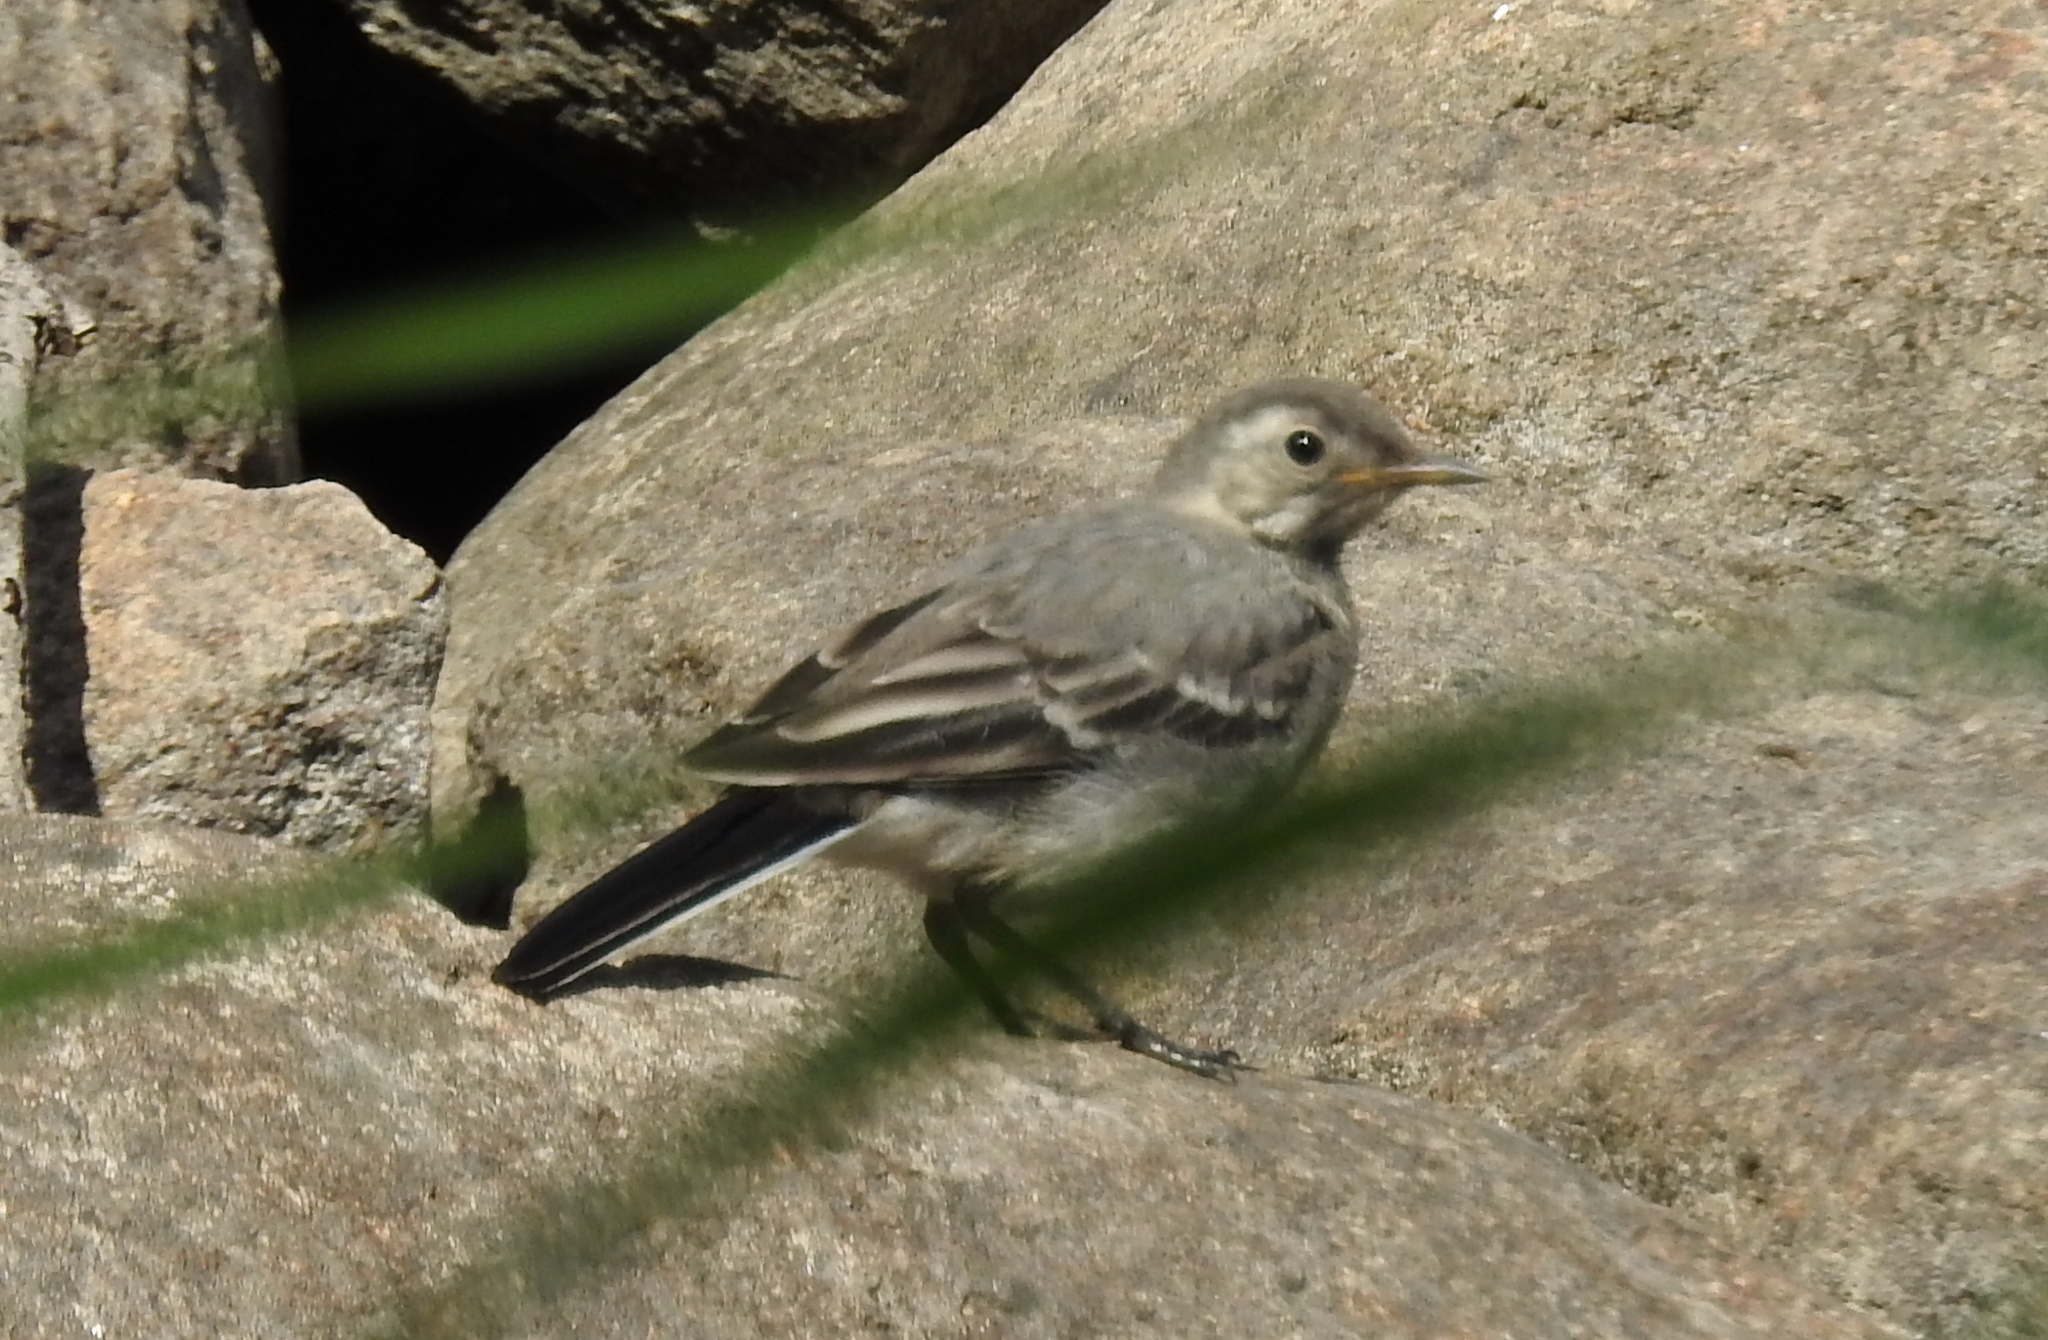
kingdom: Animalia
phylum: Chordata
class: Aves
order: Passeriformes
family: Motacillidae
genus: Motacilla
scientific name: Motacilla alba
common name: White wagtail
